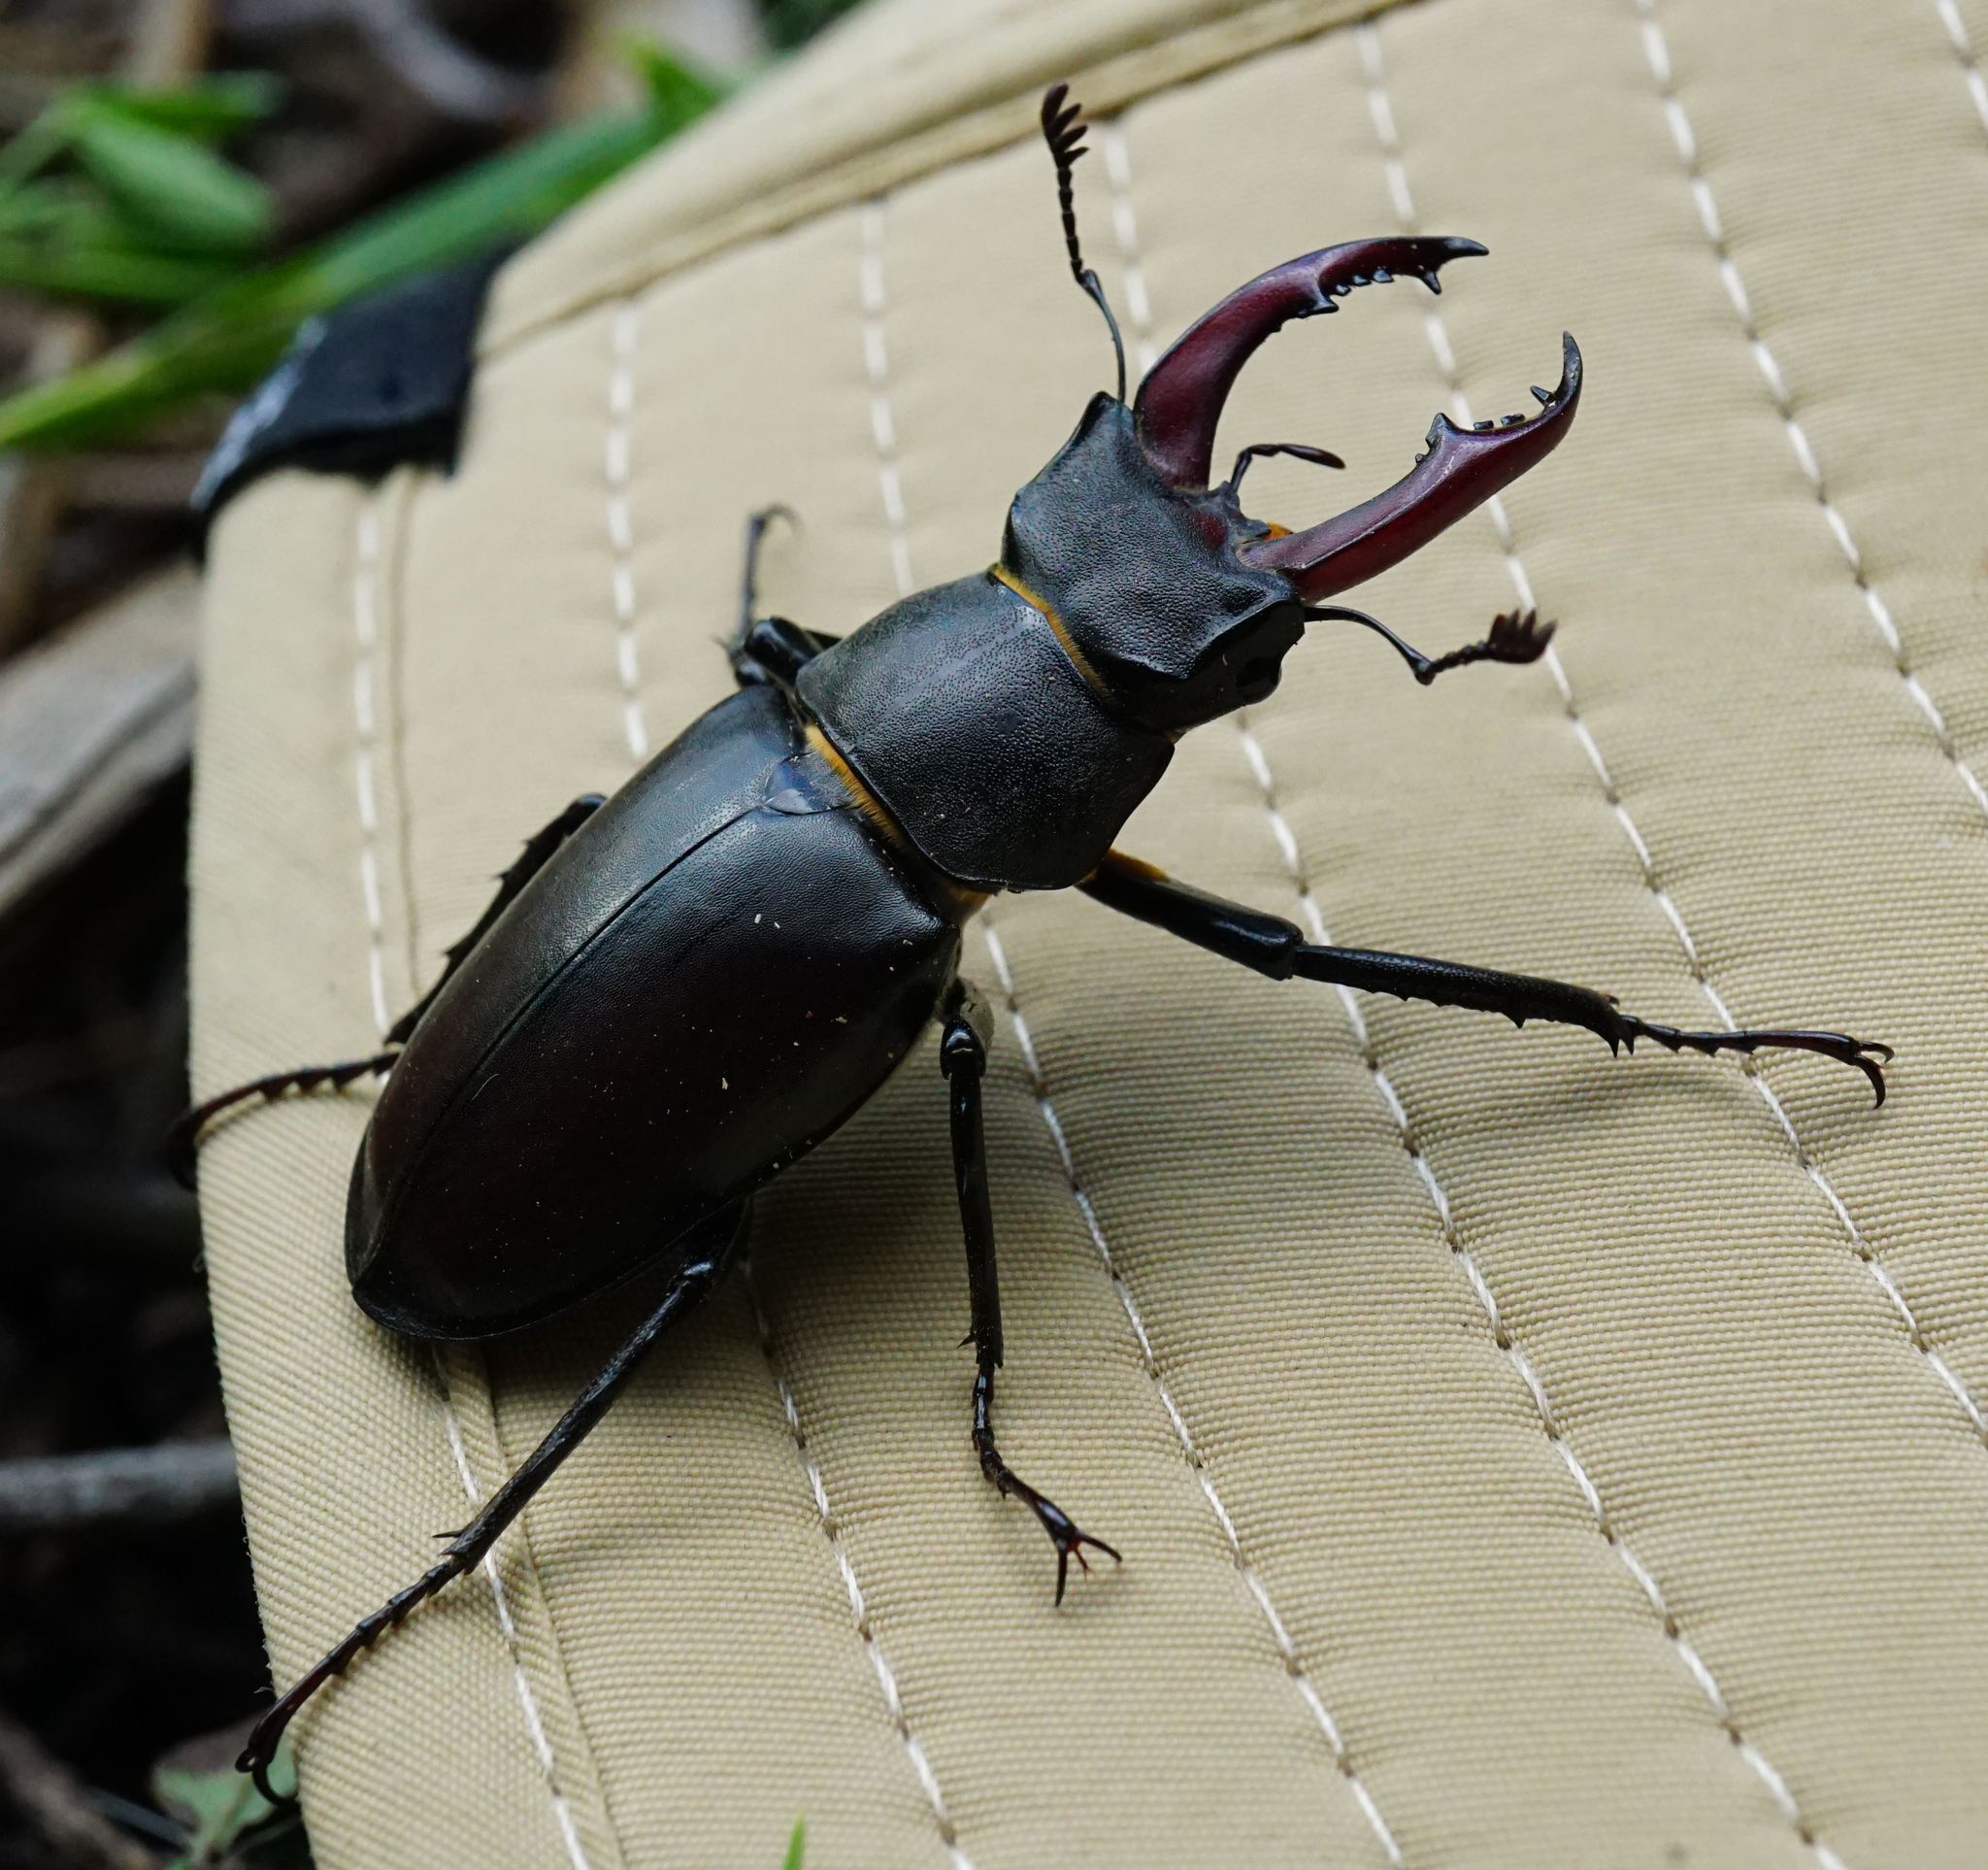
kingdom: Animalia
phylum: Arthropoda
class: Insecta
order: Coleoptera
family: Lucanidae
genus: Lucanus
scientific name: Lucanus cervus
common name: Stag beetle
